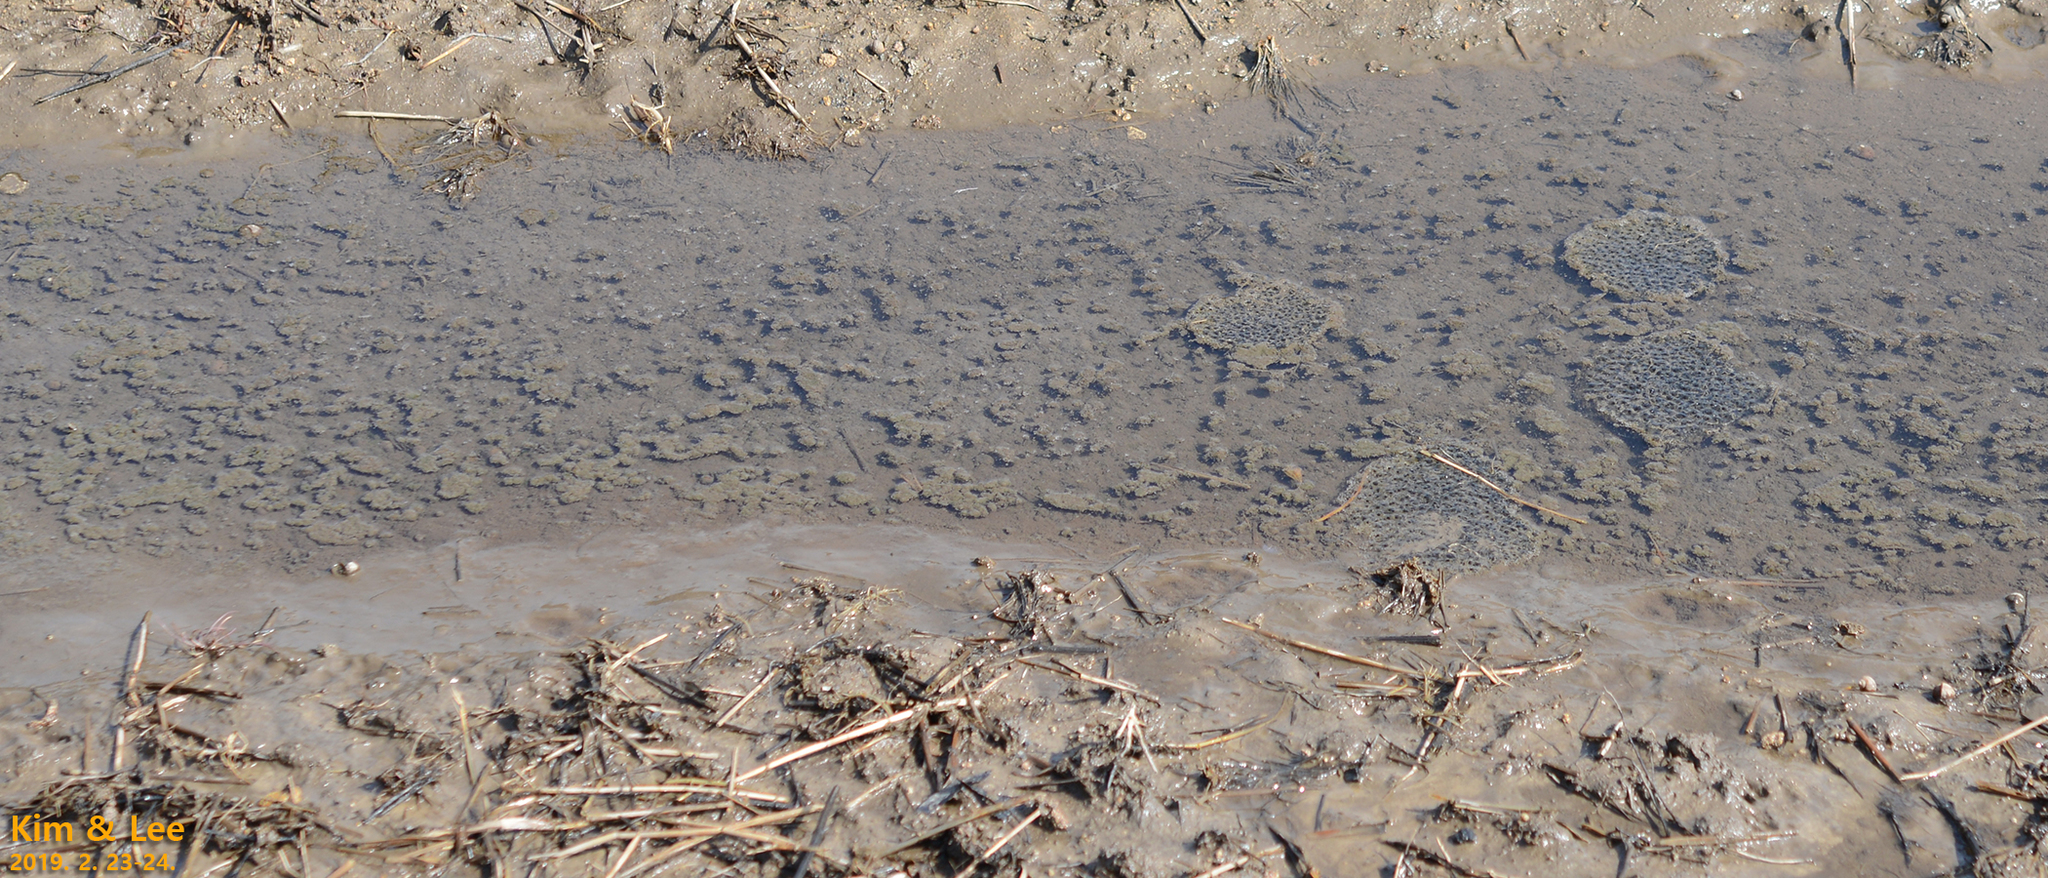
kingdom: Animalia
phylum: Chordata
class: Amphibia
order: Anura
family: Ranidae
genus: Rana
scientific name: Rana uenoi
